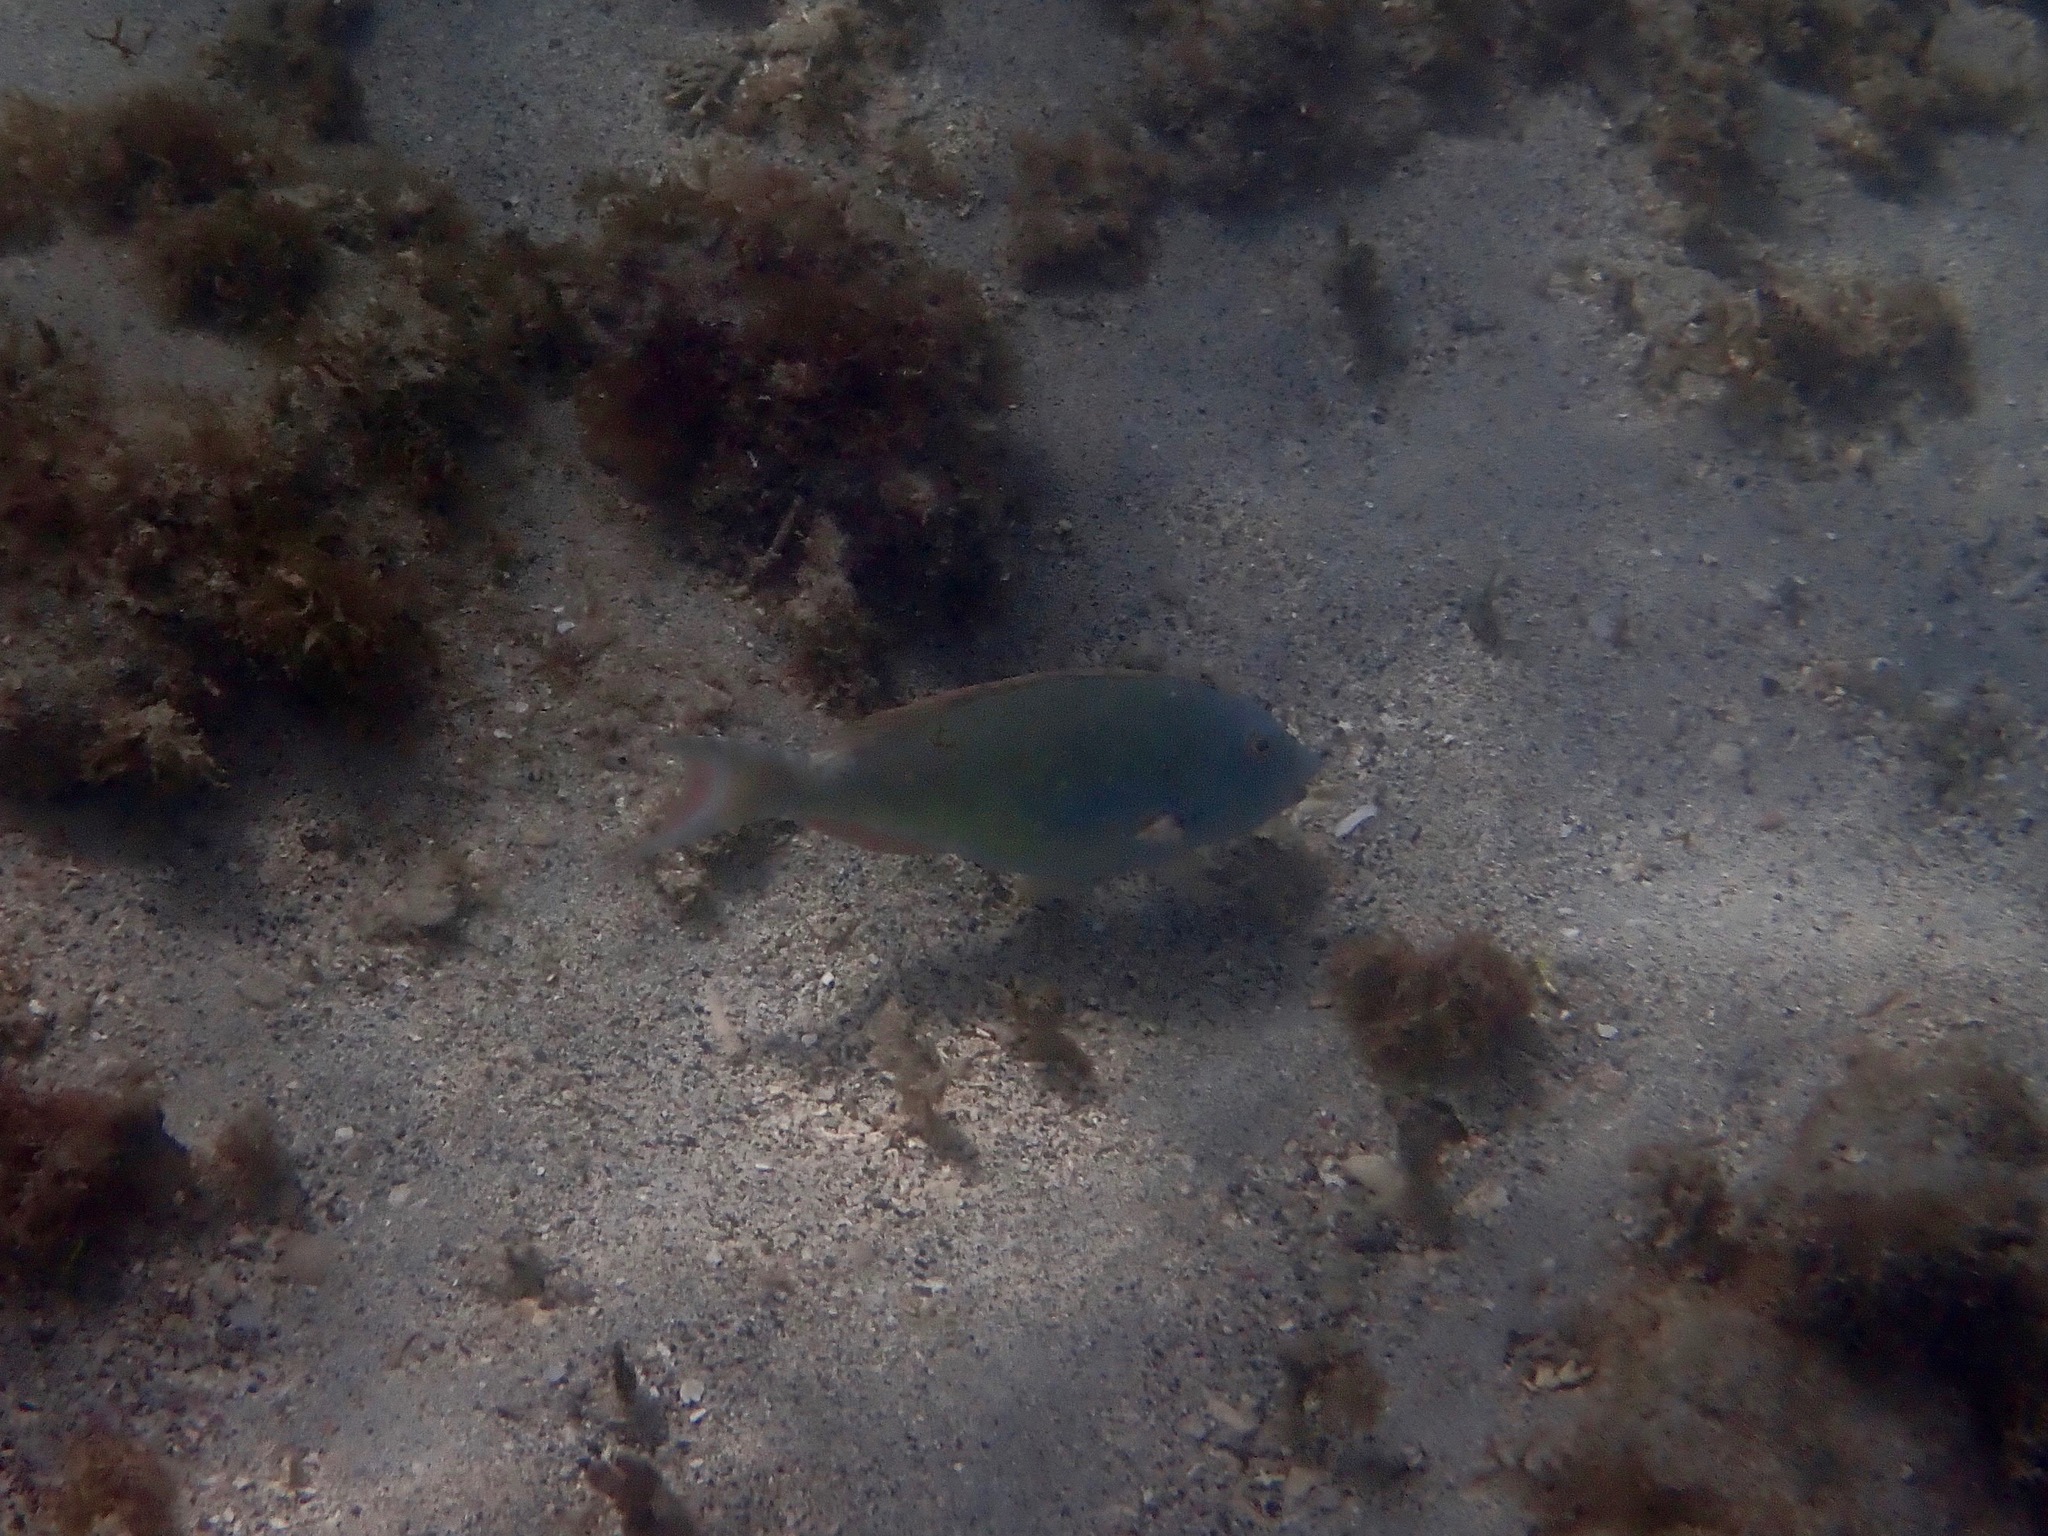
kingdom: Animalia
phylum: Chordata
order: Perciformes
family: Scaridae
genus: Sparisoma
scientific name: Sparisoma chrysopterum
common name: Redtail parrotfish
